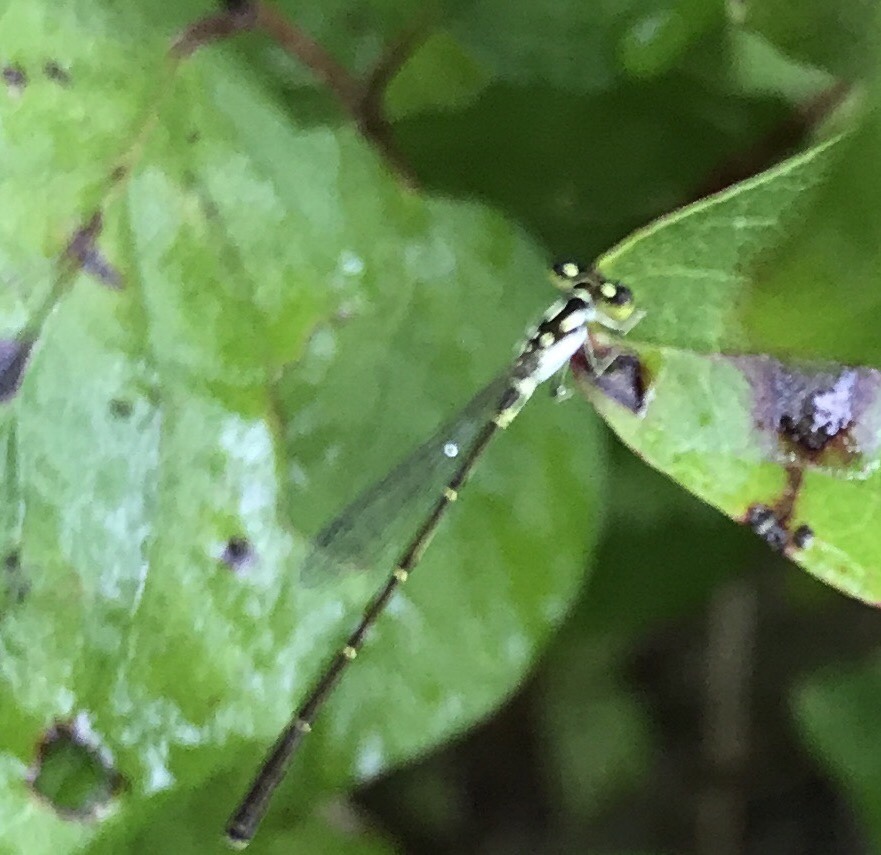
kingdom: Animalia
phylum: Arthropoda
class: Insecta
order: Odonata
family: Coenagrionidae
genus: Ischnura
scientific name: Ischnura posita
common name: Fragile forktail
